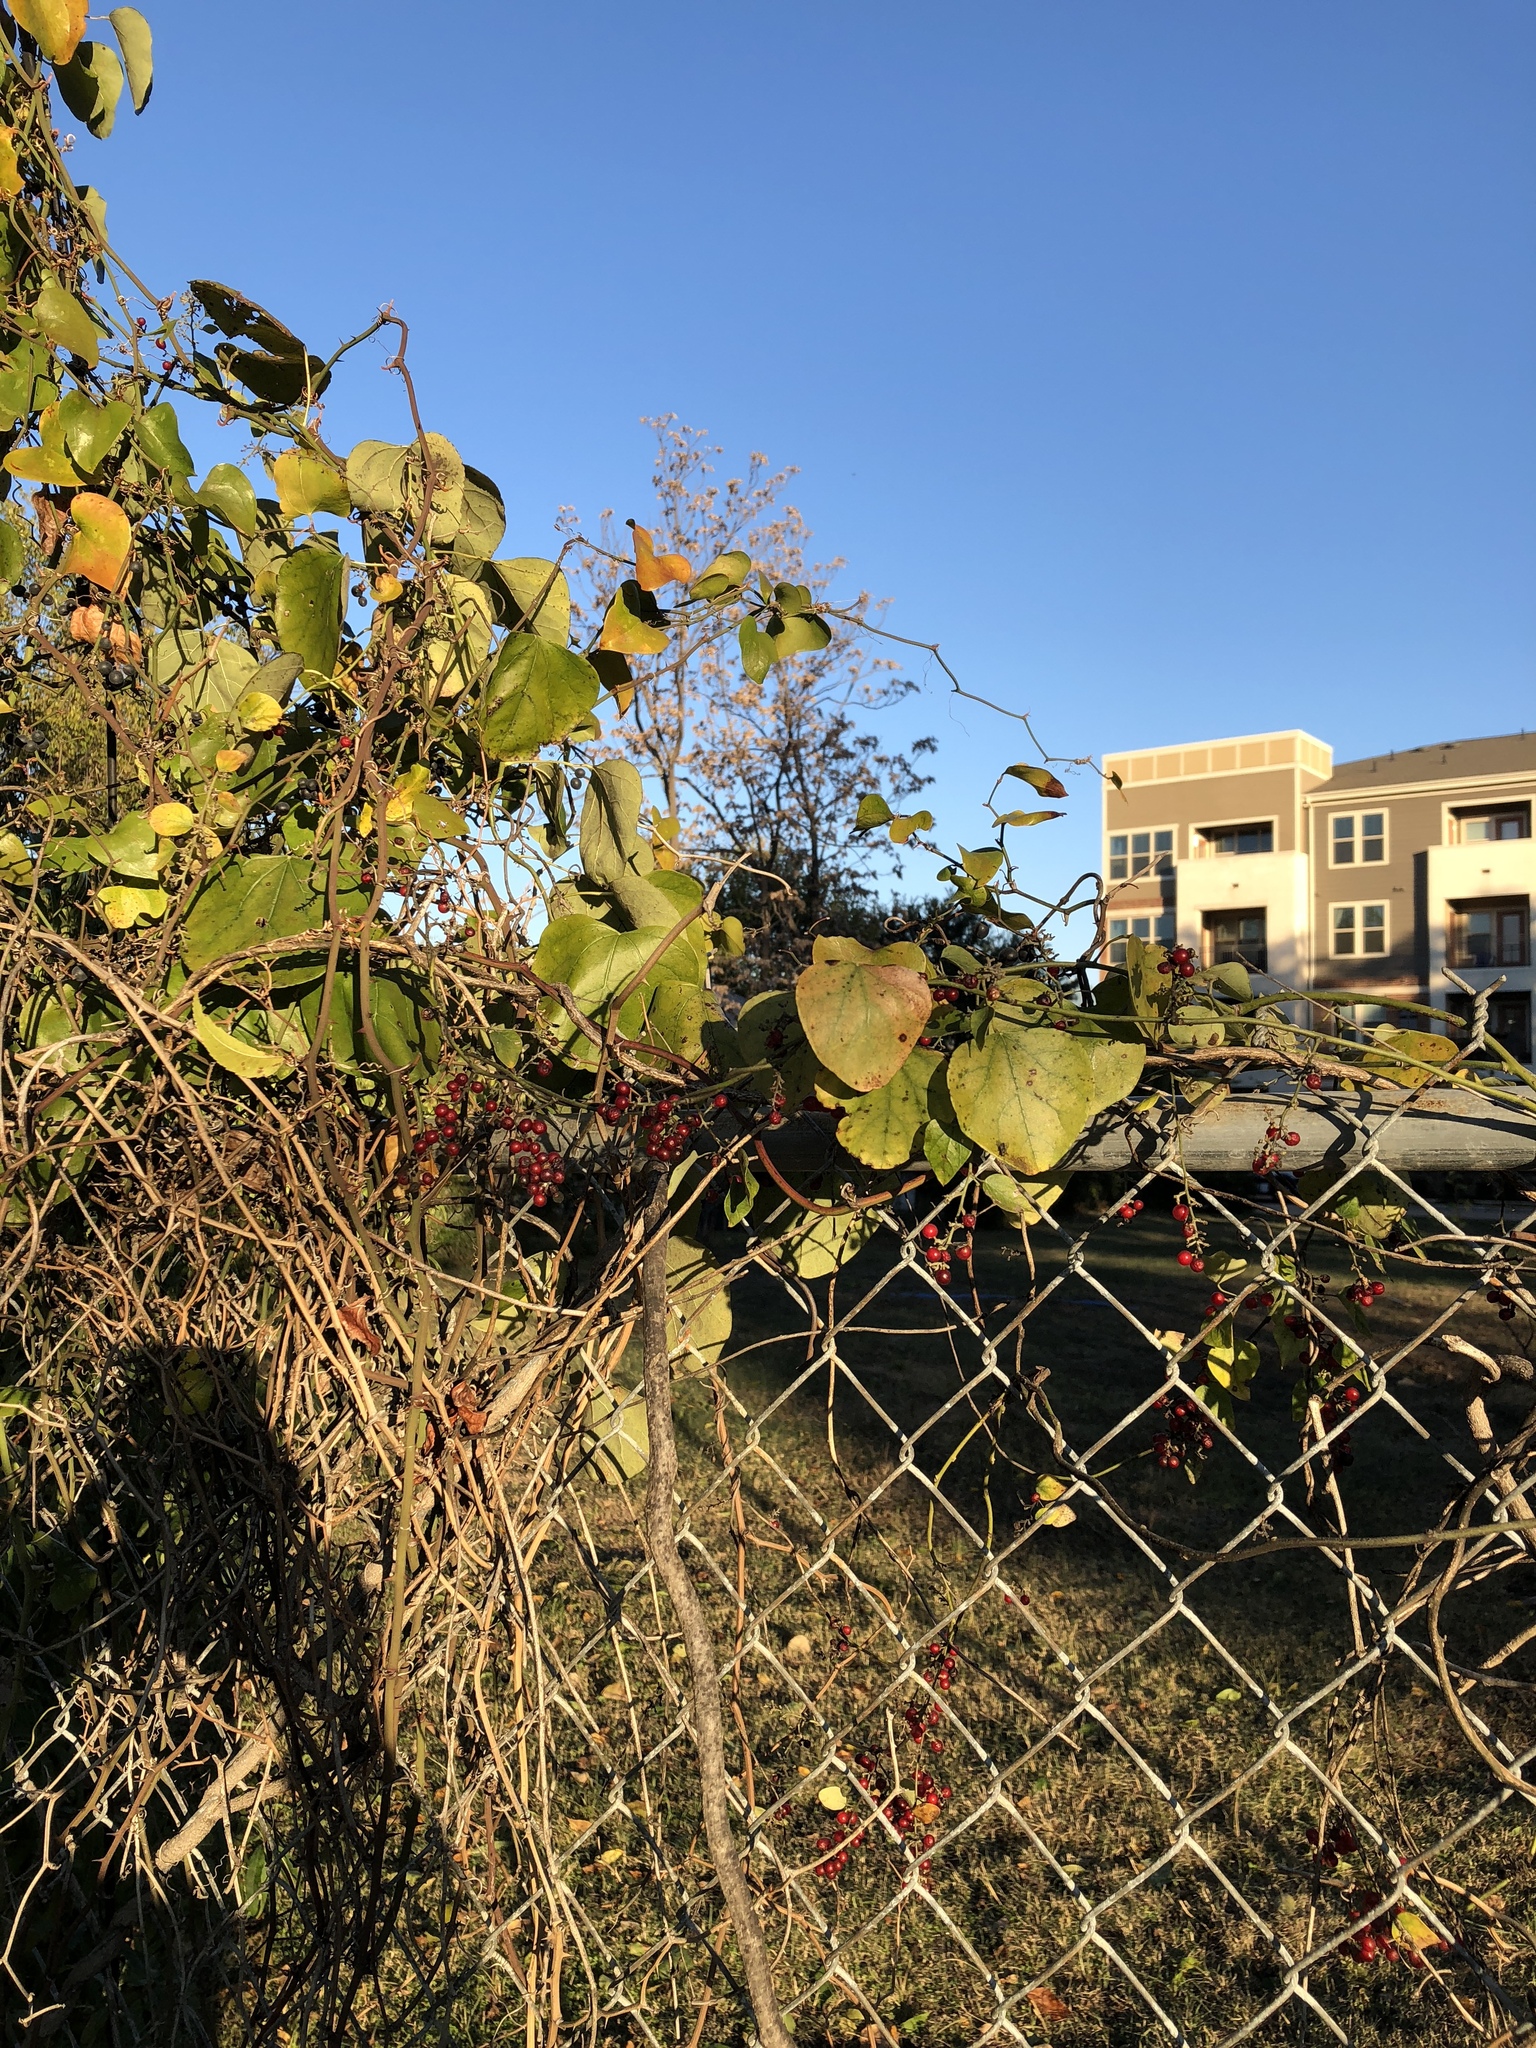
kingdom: Plantae
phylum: Tracheophyta
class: Magnoliopsida
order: Ranunculales
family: Menispermaceae
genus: Cocculus
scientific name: Cocculus carolinus
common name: Carolina moonseed
